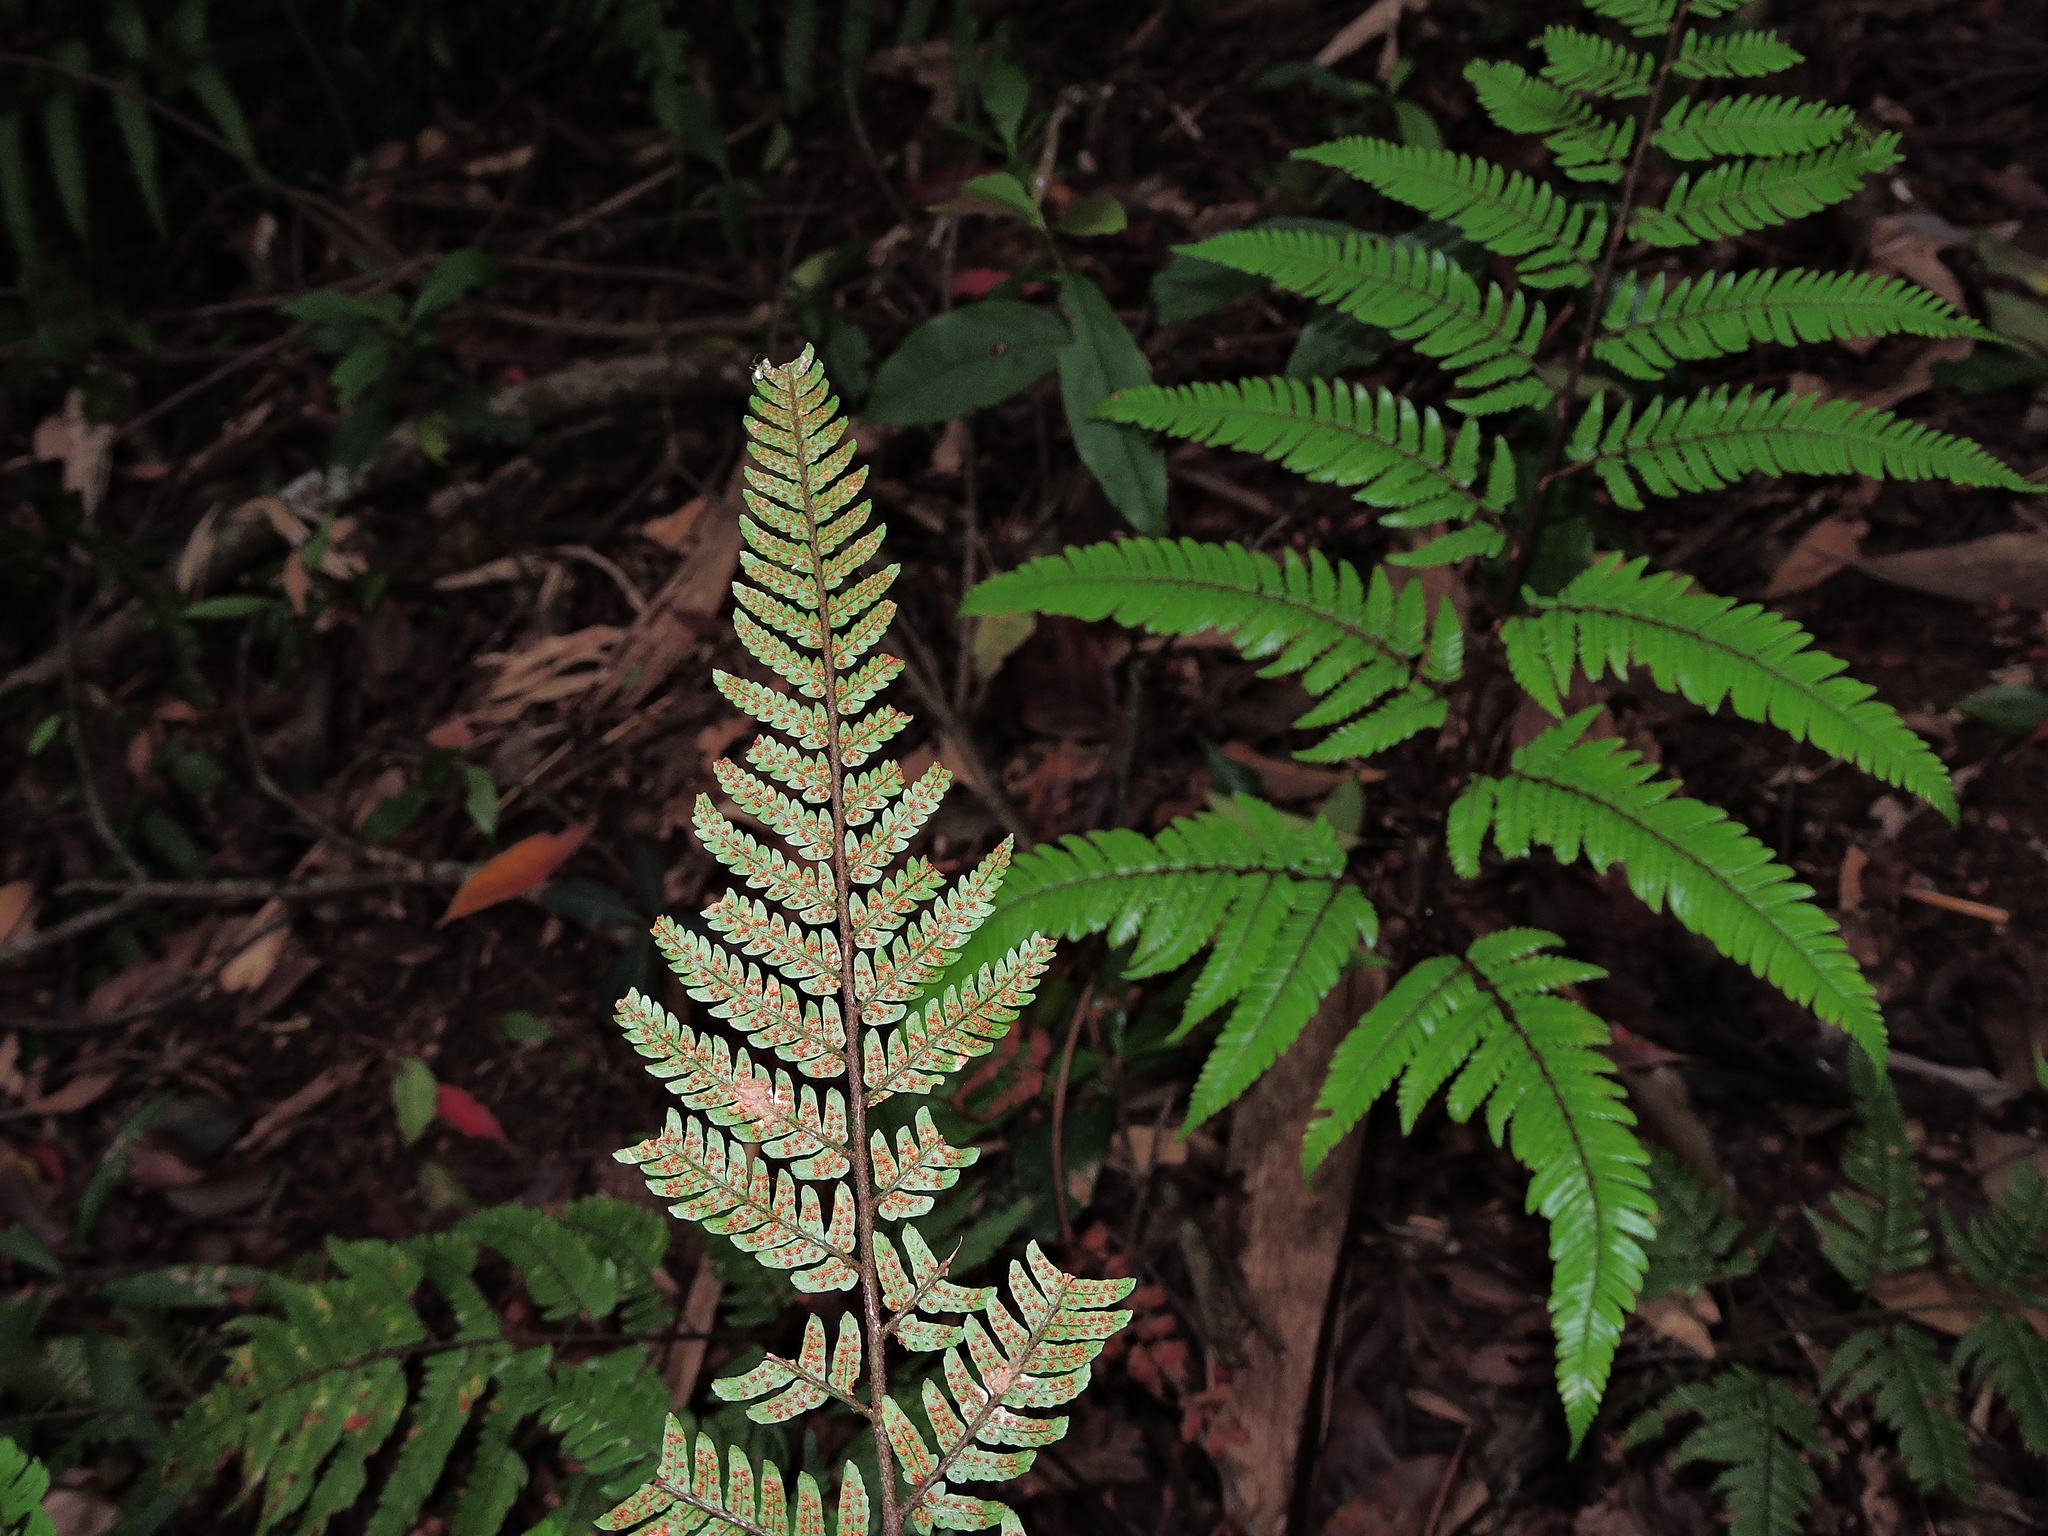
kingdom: Plantae
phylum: Tracheophyta
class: Polypodiopsida
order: Polypodiales
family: Dryopteridaceae
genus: Dryopteris
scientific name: Dryopteris sordidipes
